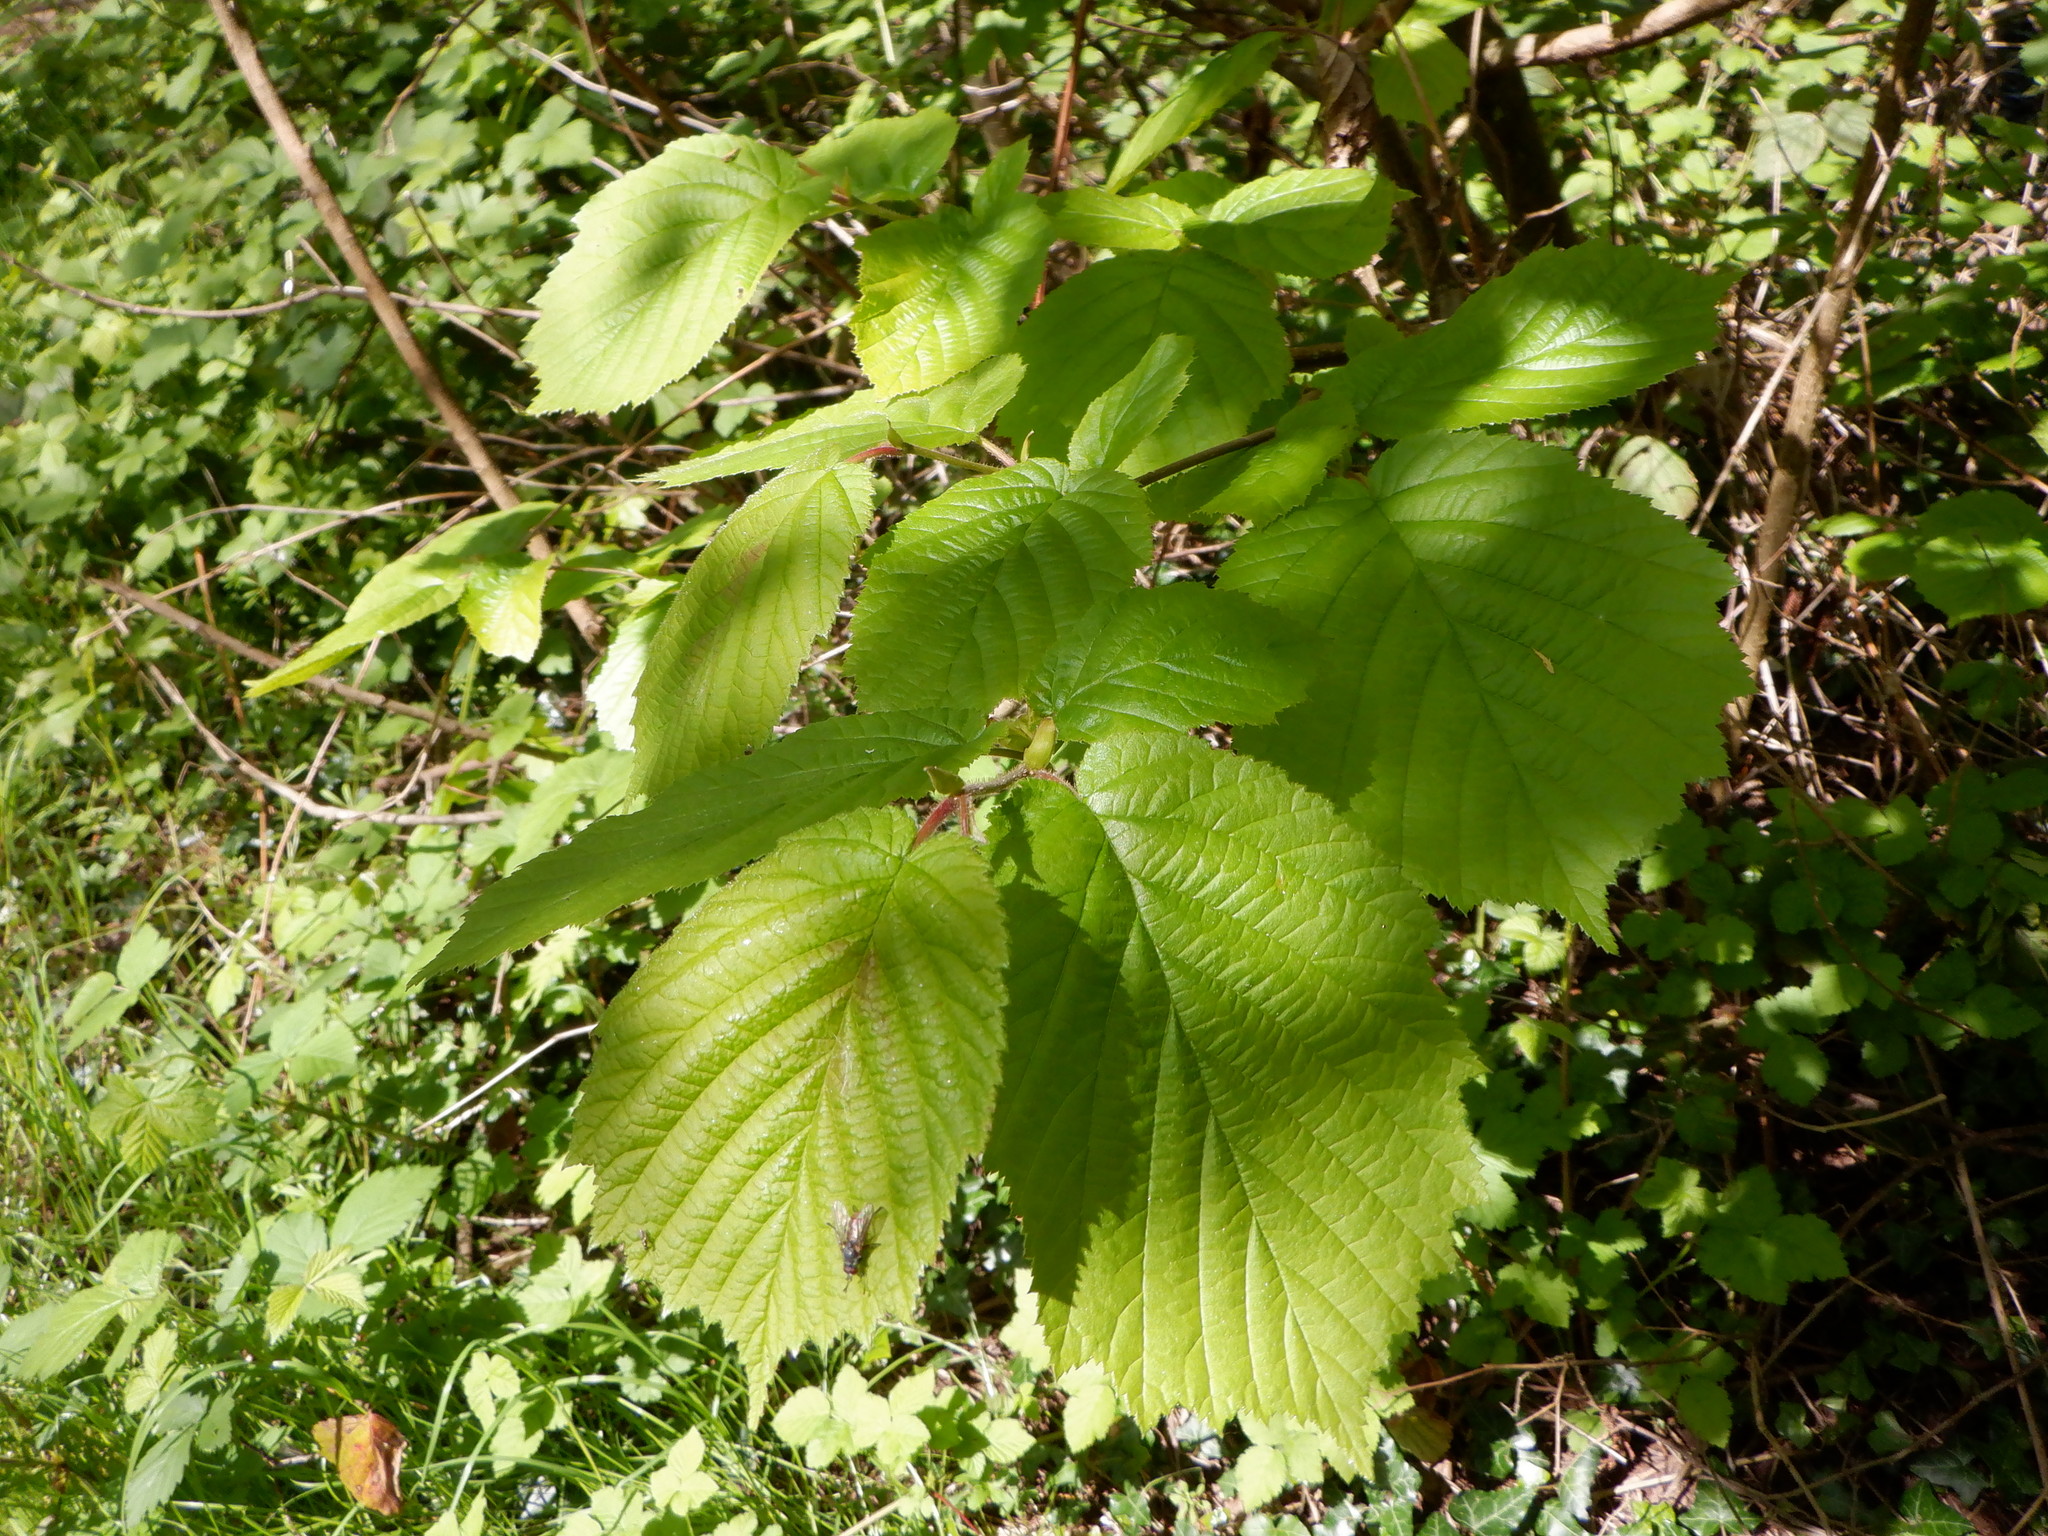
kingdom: Plantae
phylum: Tracheophyta
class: Magnoliopsida
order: Fagales
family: Betulaceae
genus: Corylus
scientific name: Corylus avellana
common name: European hazel
